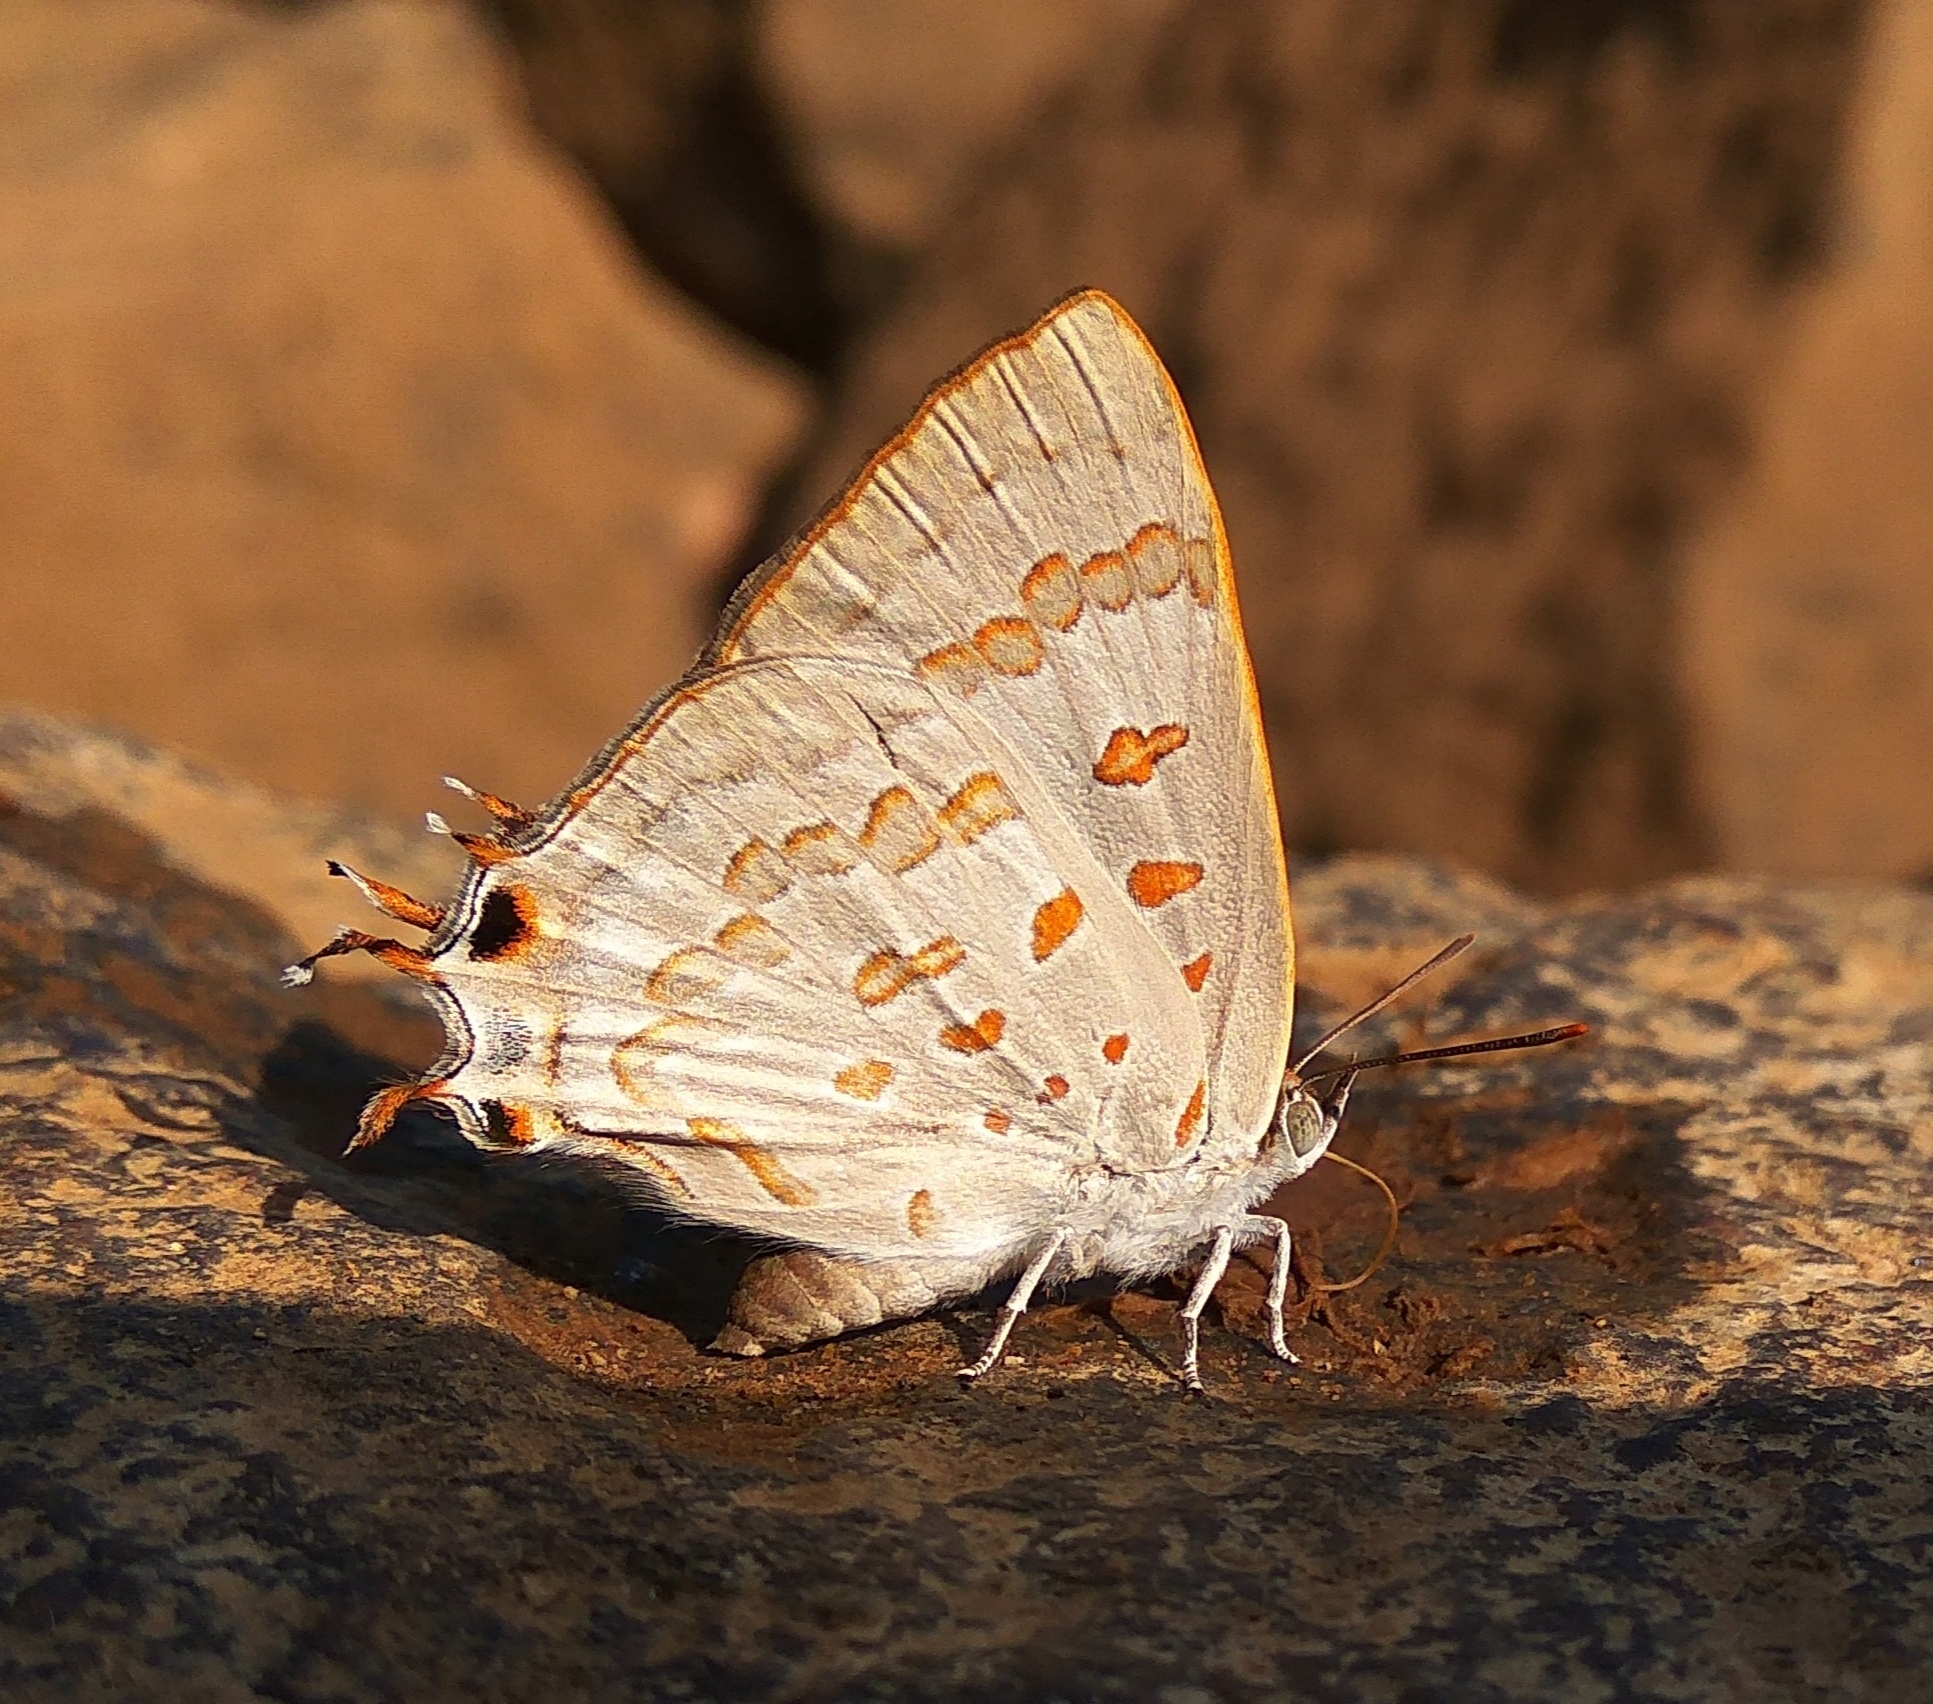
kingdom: Animalia
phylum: Arthropoda
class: Insecta
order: Lepidoptera
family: Lycaenidae
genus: Zesius
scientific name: Zesius chrysomallus
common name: Redspot
